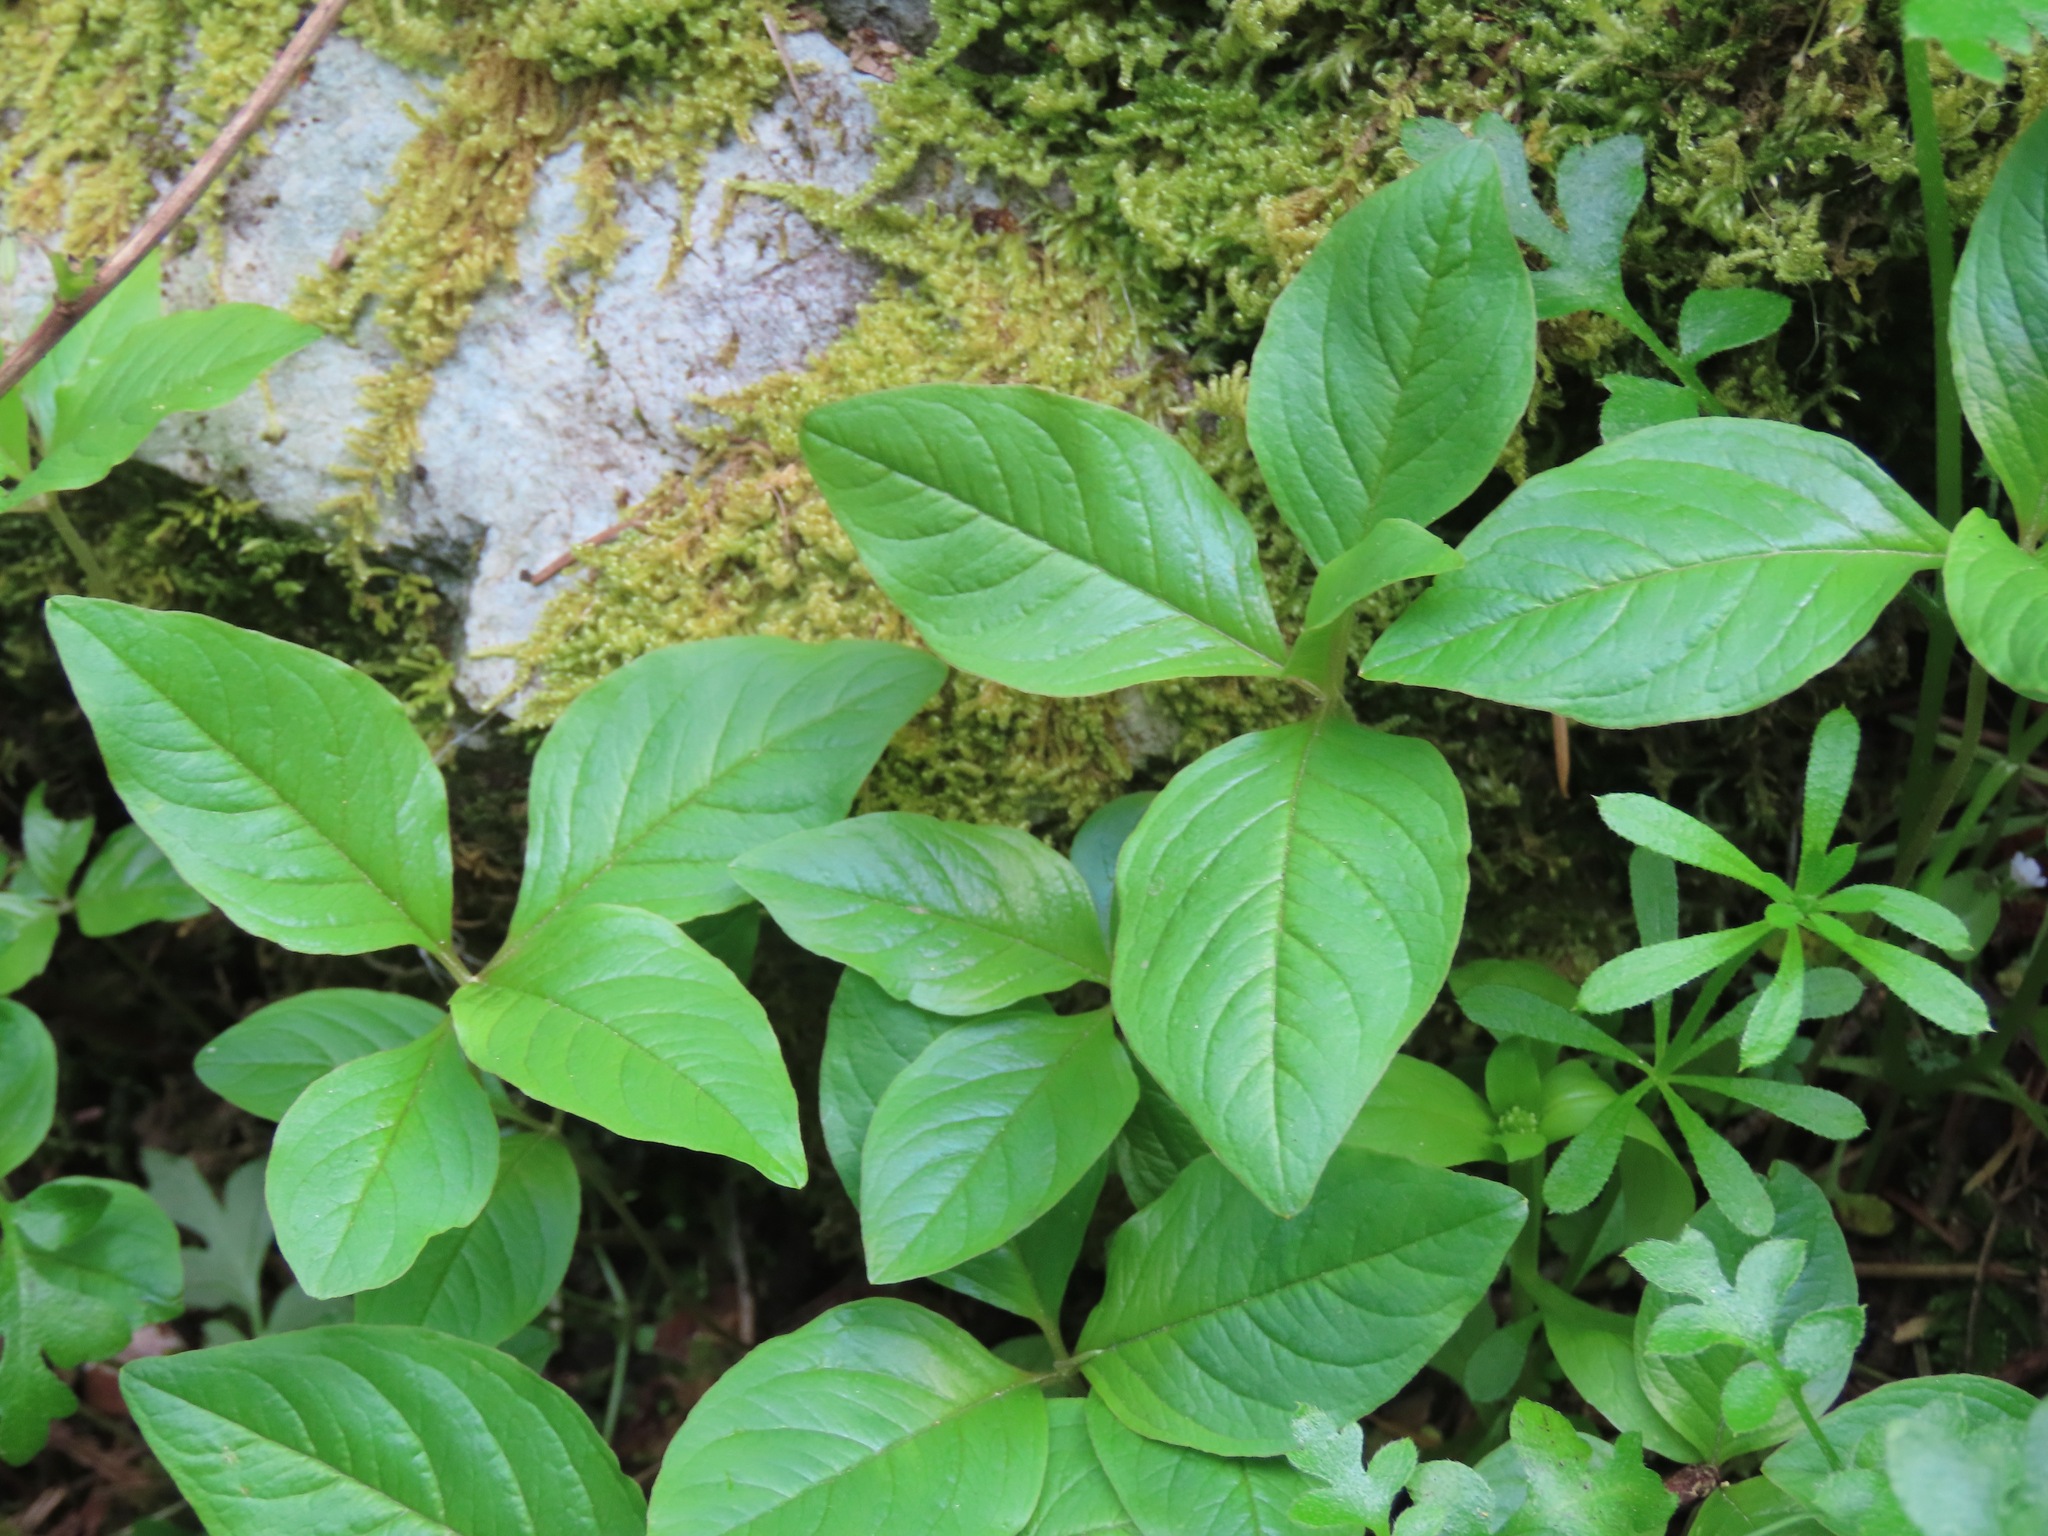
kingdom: Plantae
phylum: Tracheophyta
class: Magnoliopsida
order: Ericales
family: Primulaceae
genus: Lysimachia
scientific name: Lysimachia latifolia
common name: Pacific starflower
